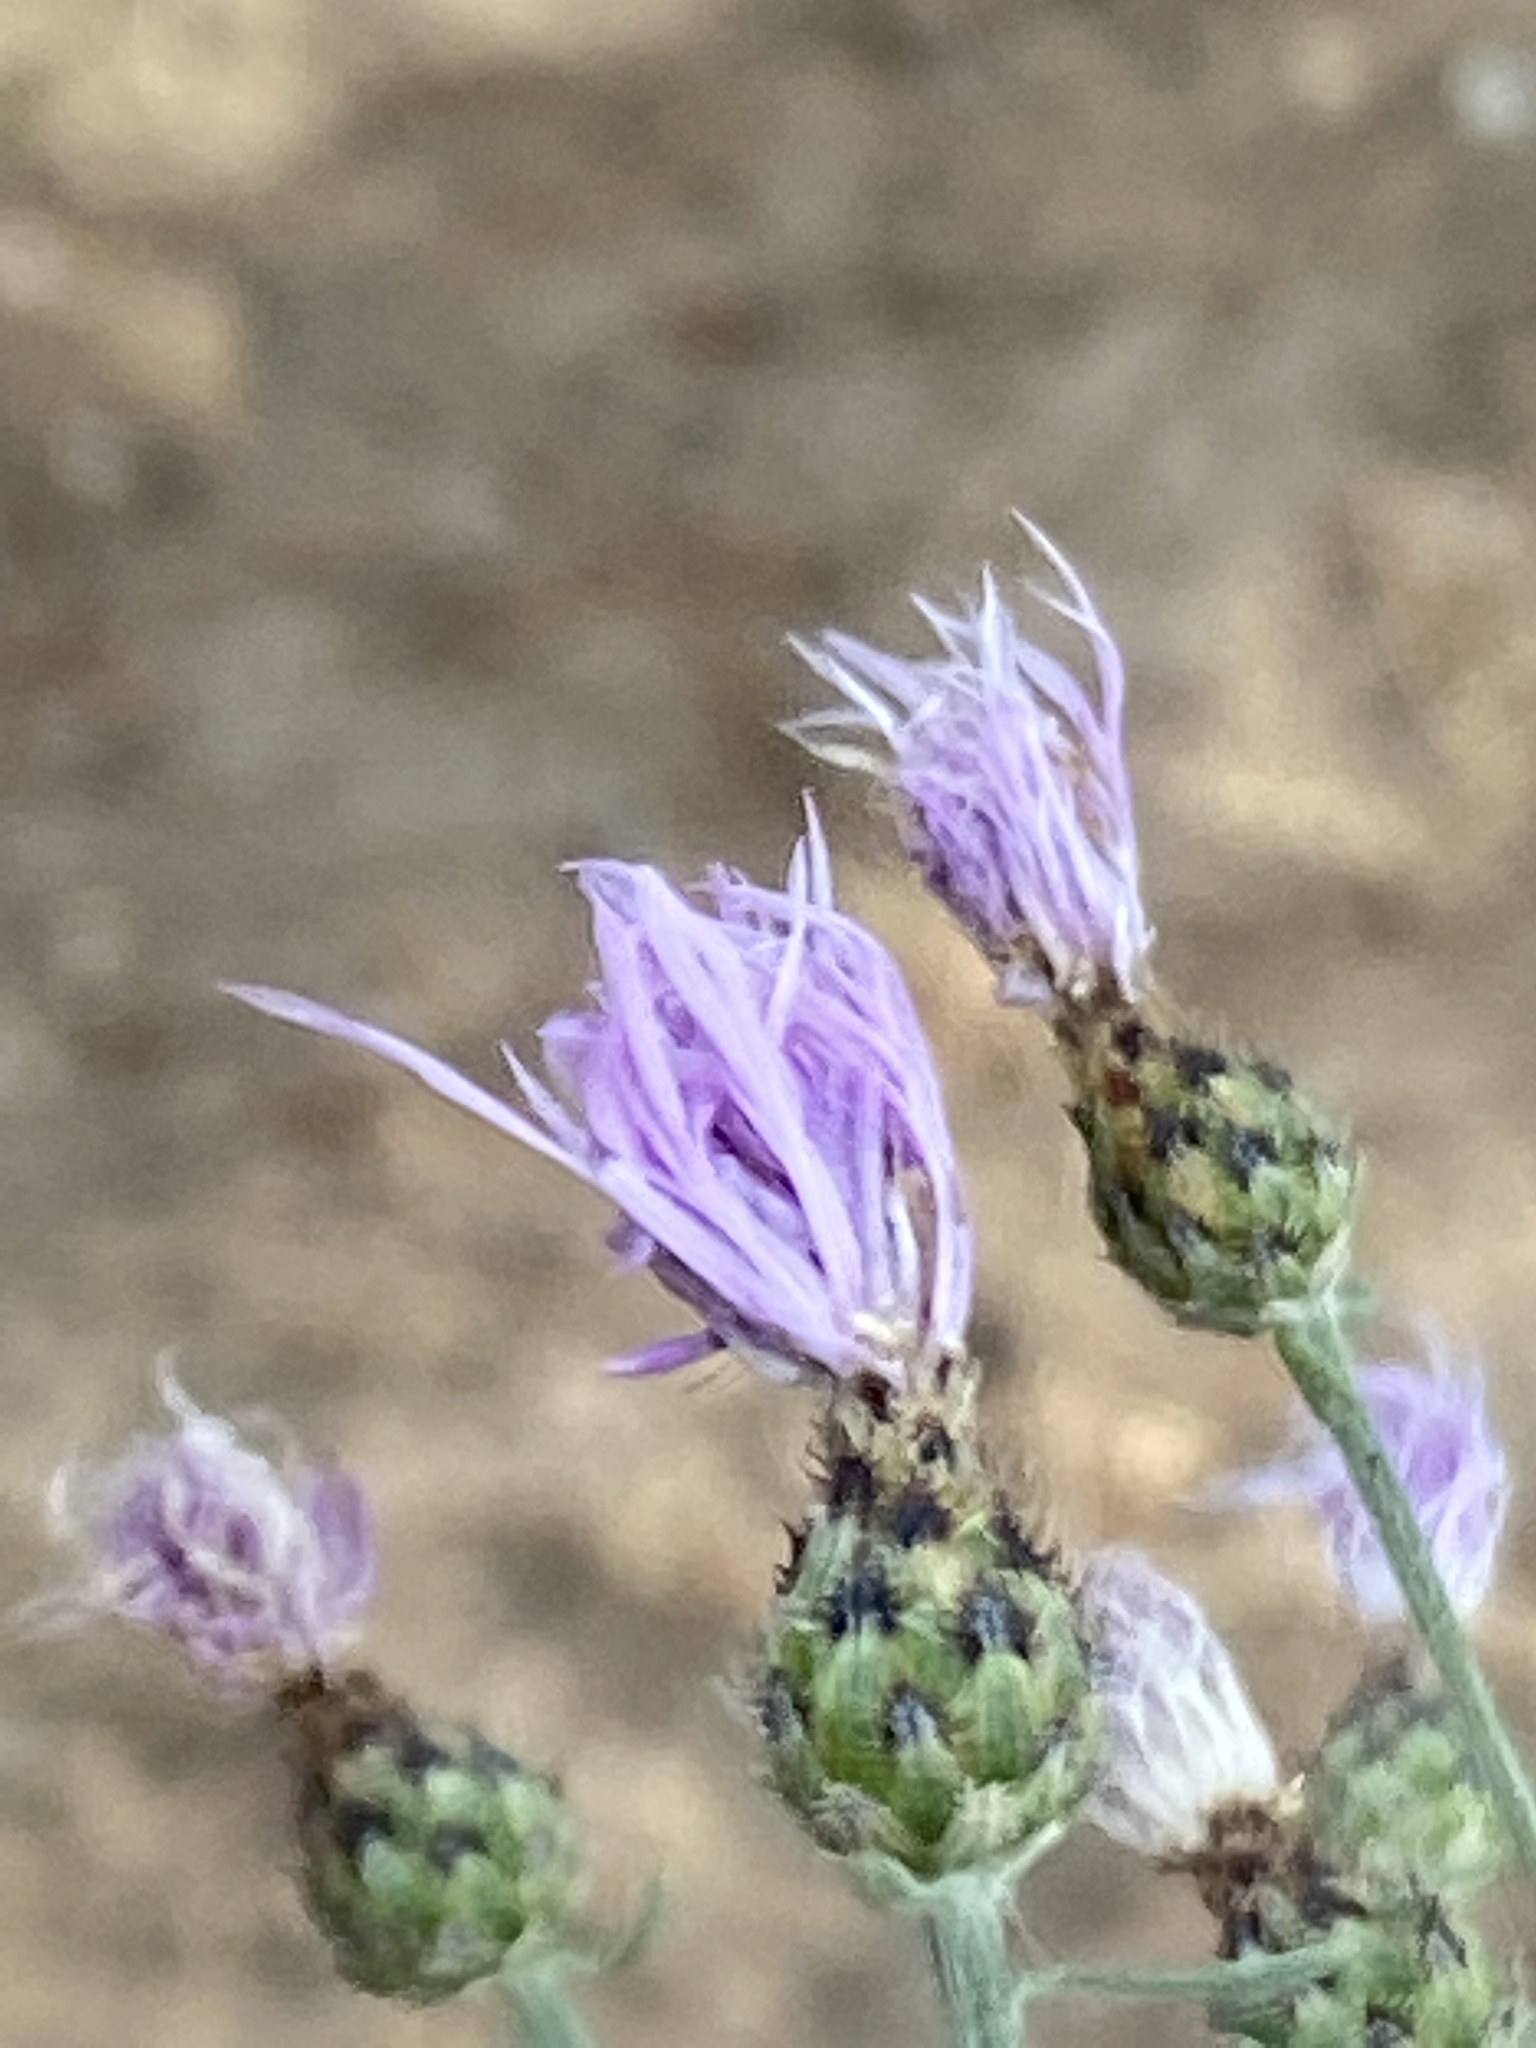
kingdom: Plantae
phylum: Tracheophyta
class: Magnoliopsida
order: Asterales
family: Asteraceae
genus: Centaurea
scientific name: Centaurea stoebe
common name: Spotted knapweed
